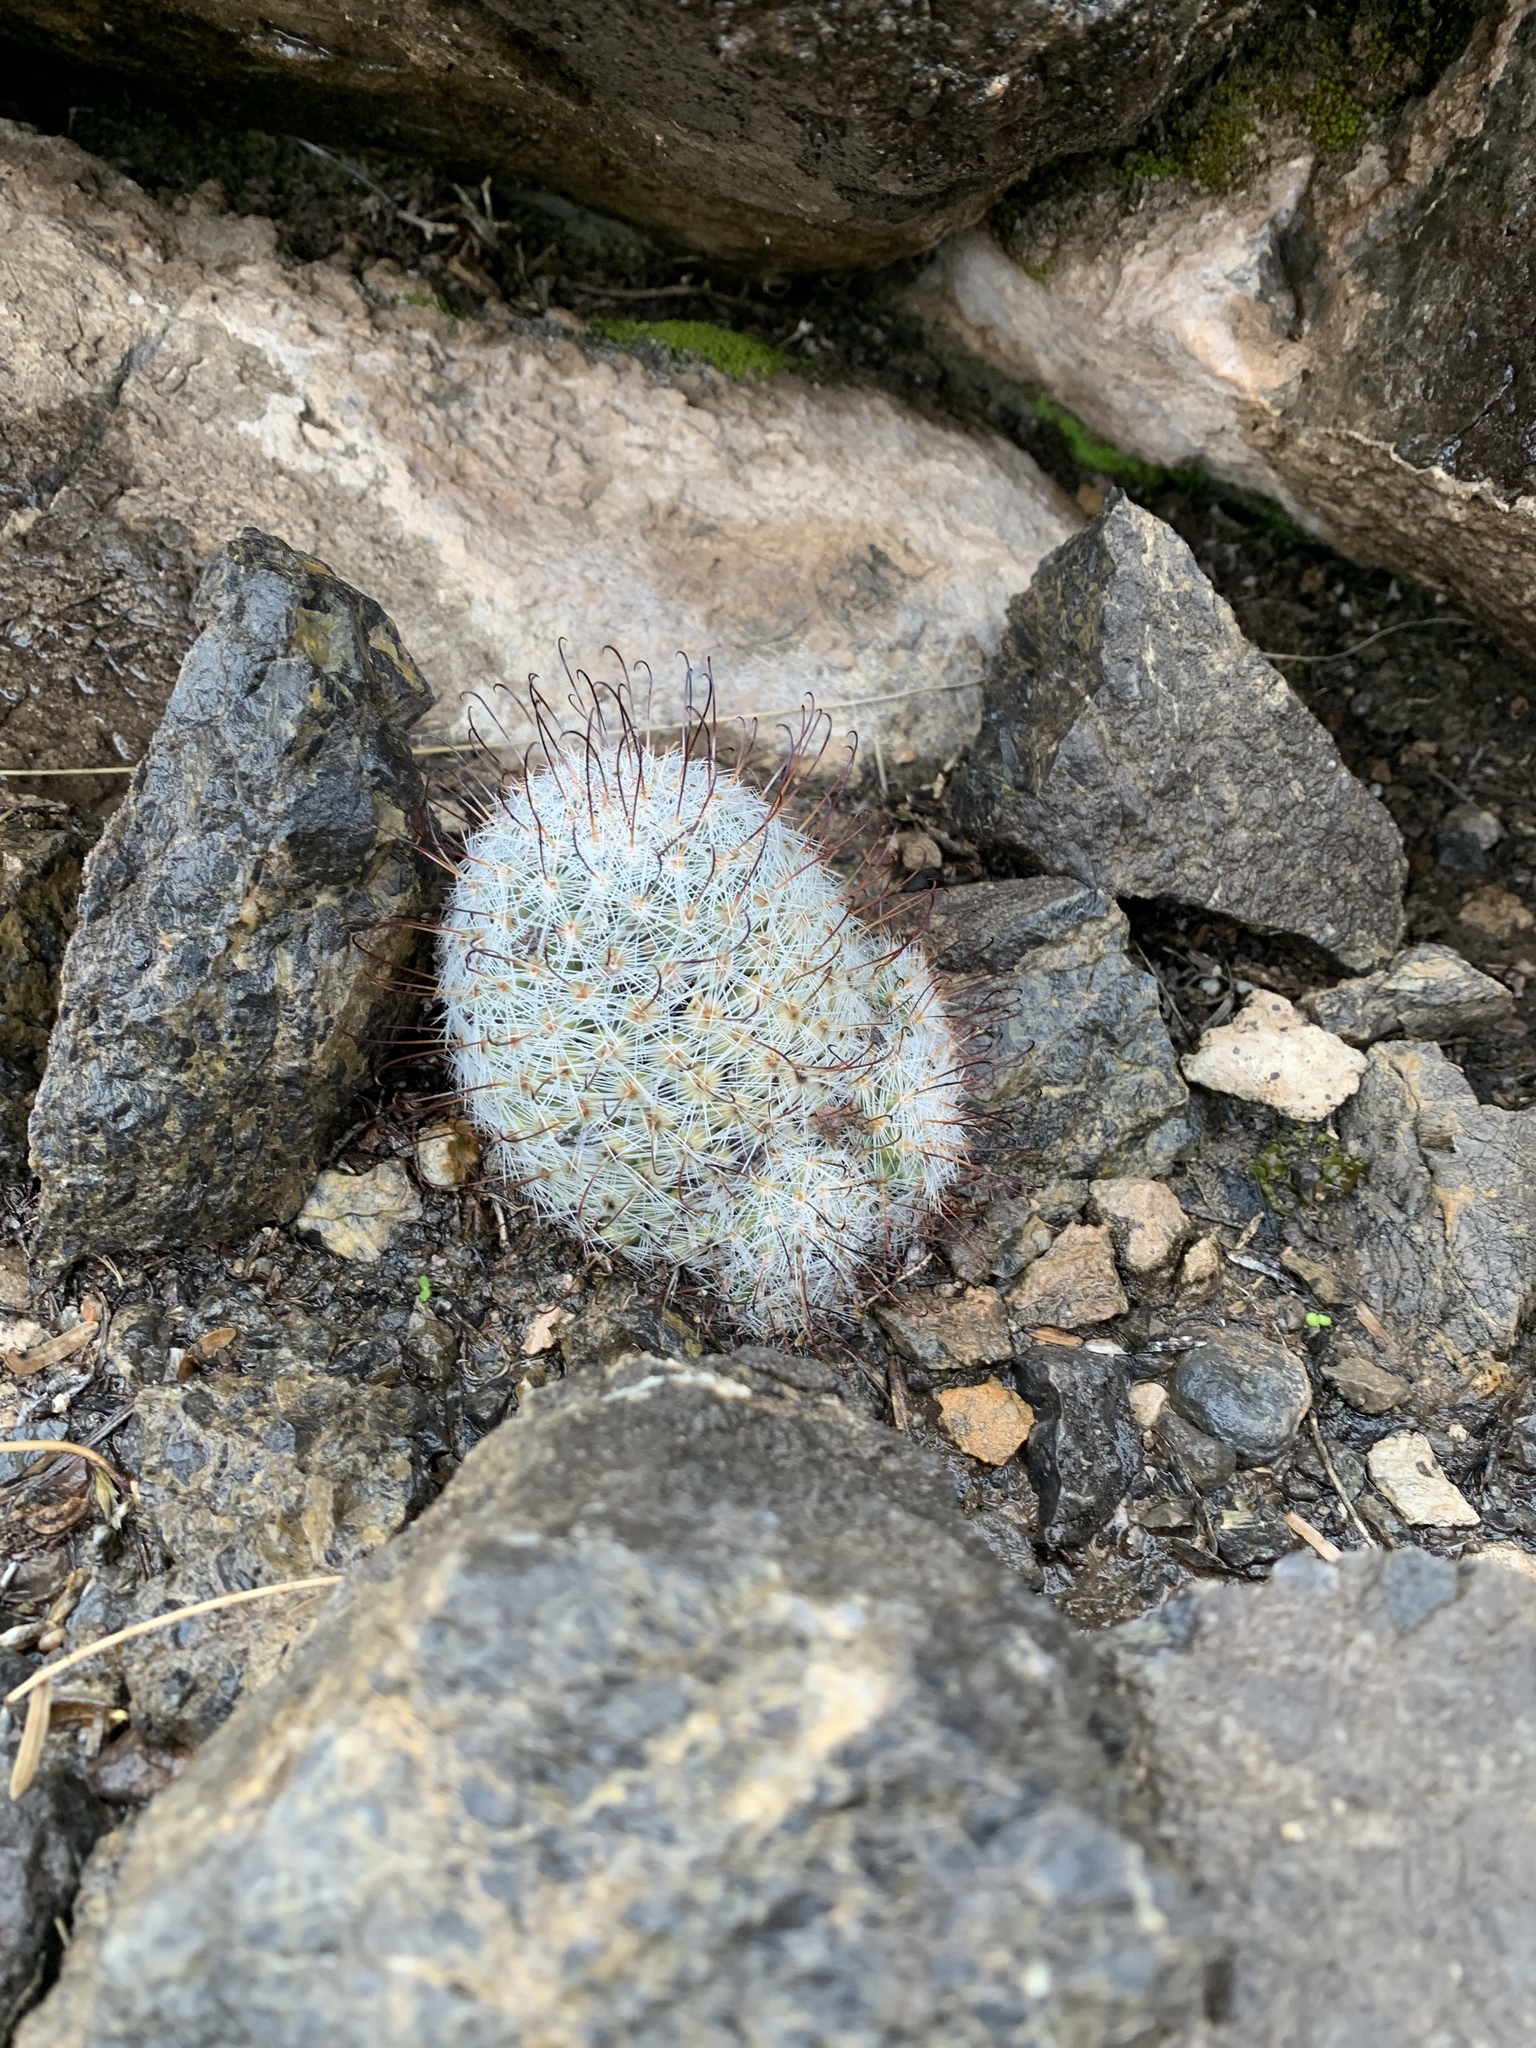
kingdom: Plantae
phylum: Tracheophyta
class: Magnoliopsida
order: Caryophyllales
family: Cactaceae
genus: Cochemiea
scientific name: Cochemiea grahamii
